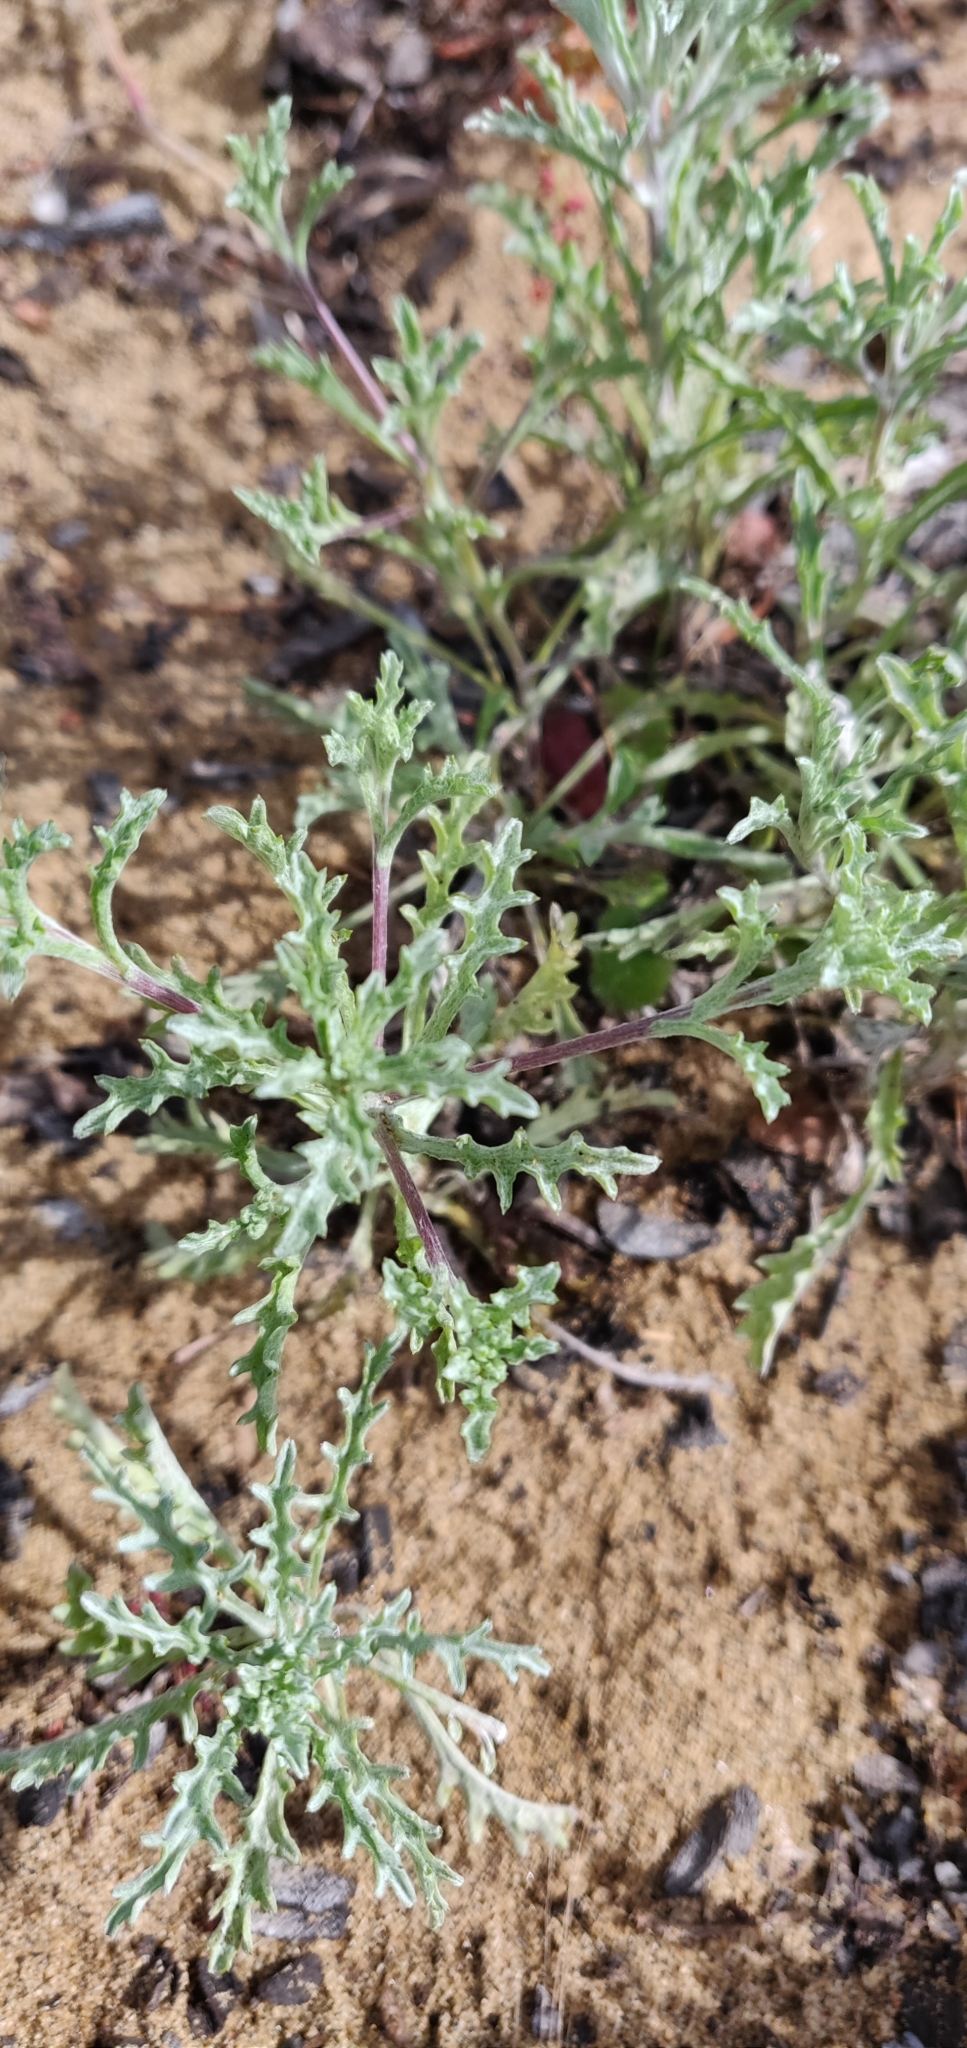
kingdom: Plantae
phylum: Tracheophyta
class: Magnoliopsida
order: Asterales
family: Asteraceae
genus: Lessingia
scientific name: Lessingia germanorum
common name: San francisco lessingia
